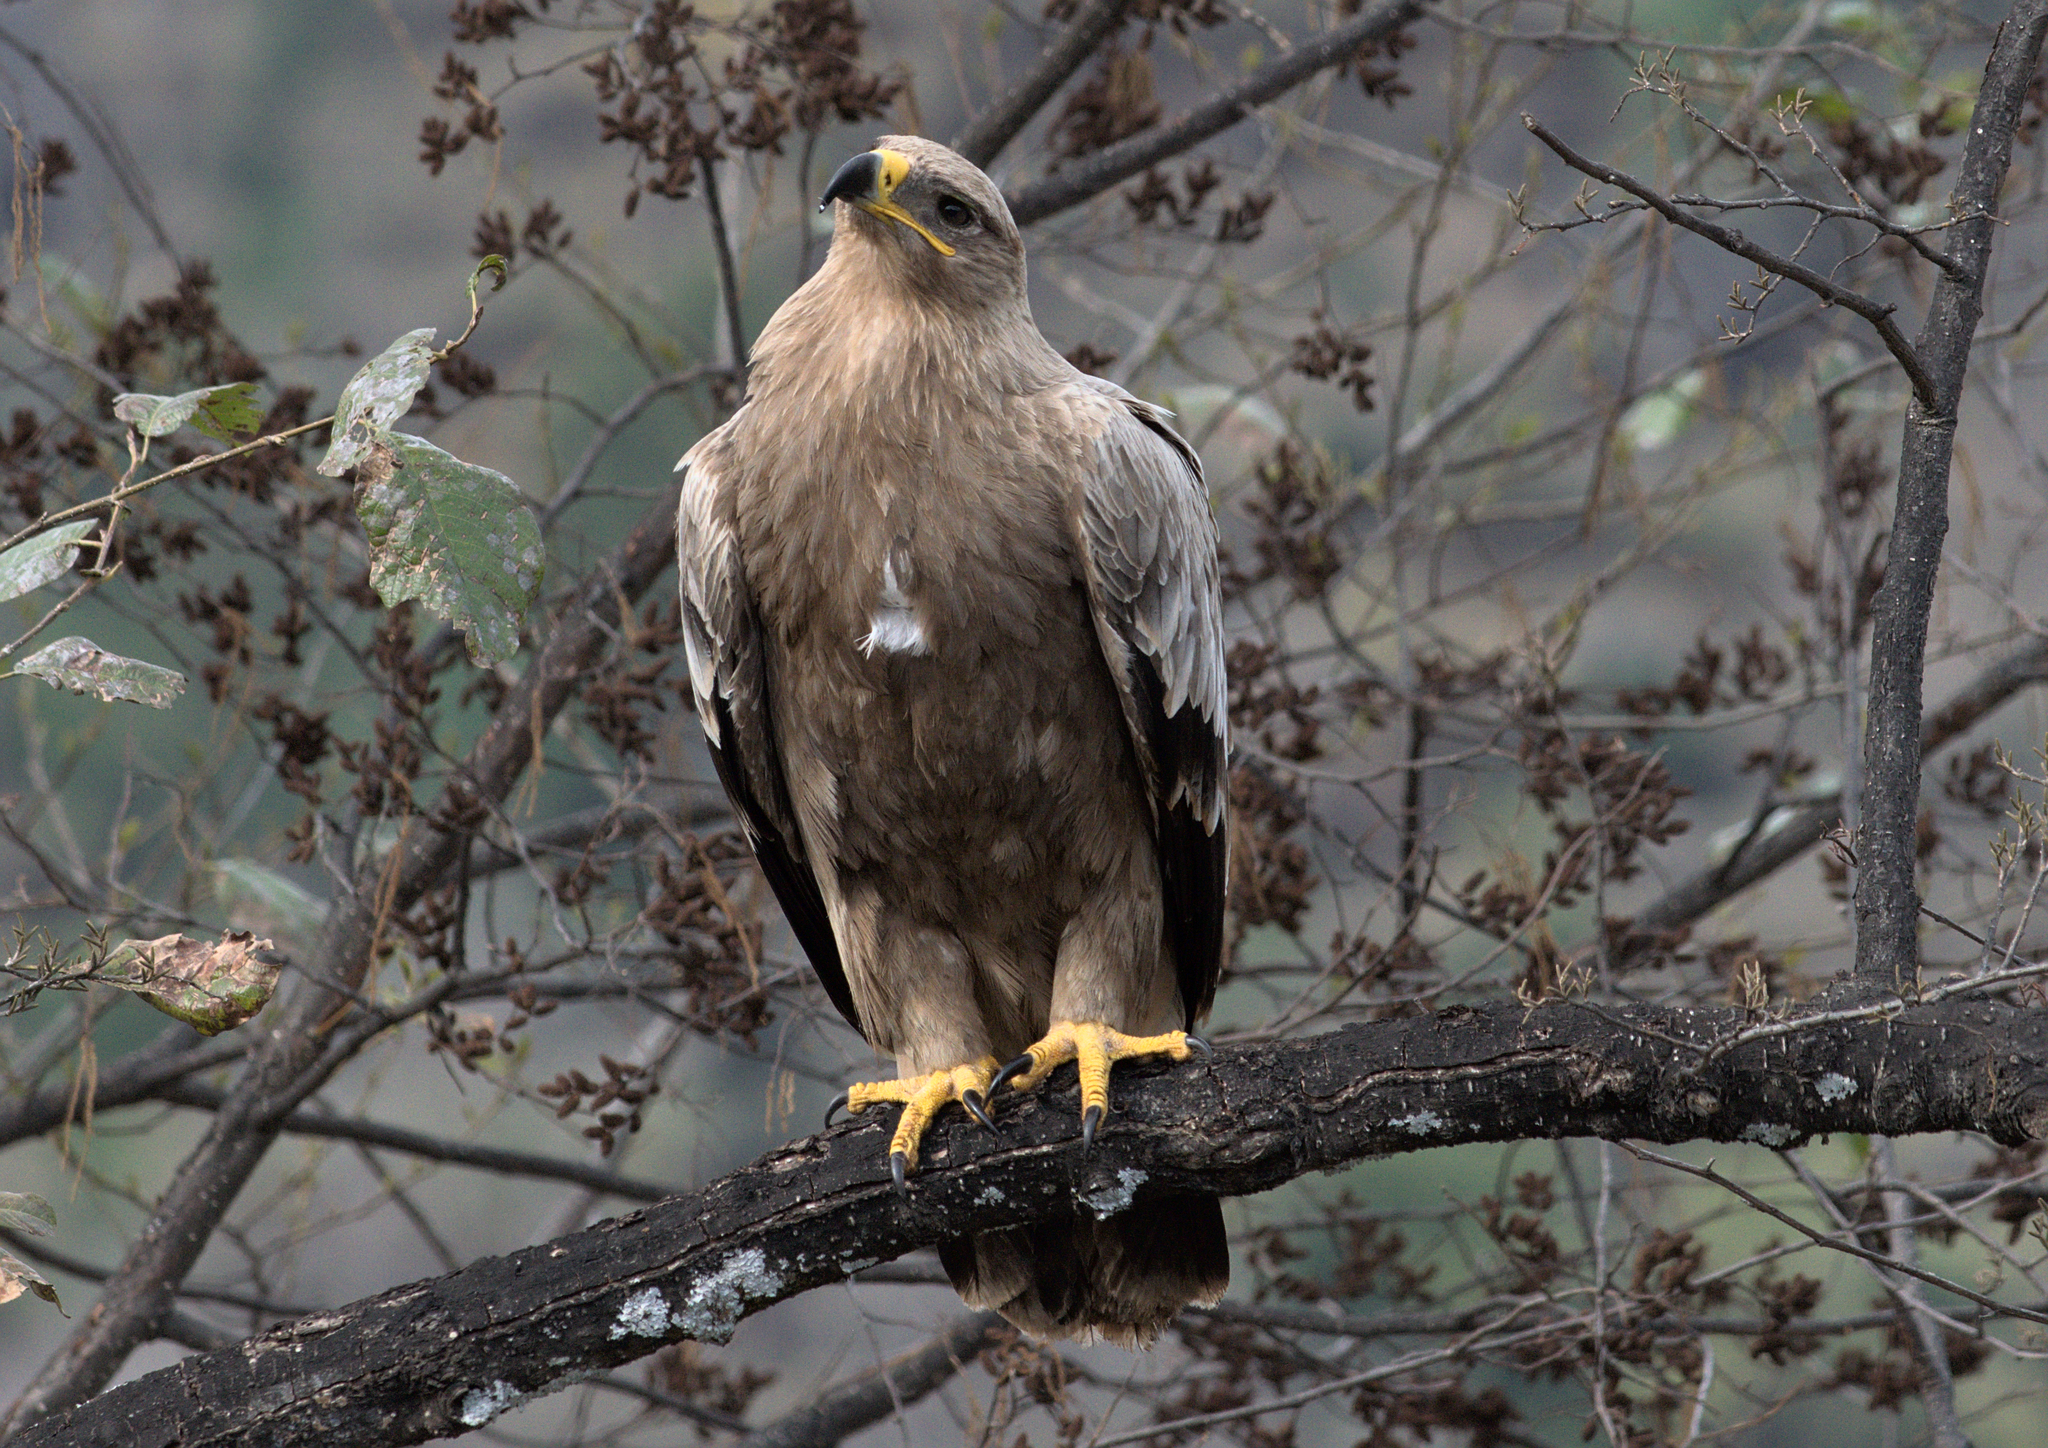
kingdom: Animalia
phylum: Chordata
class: Aves
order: Accipitriformes
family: Accipitridae
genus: Aquila
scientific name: Aquila nipalensis
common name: Steppe eagle
